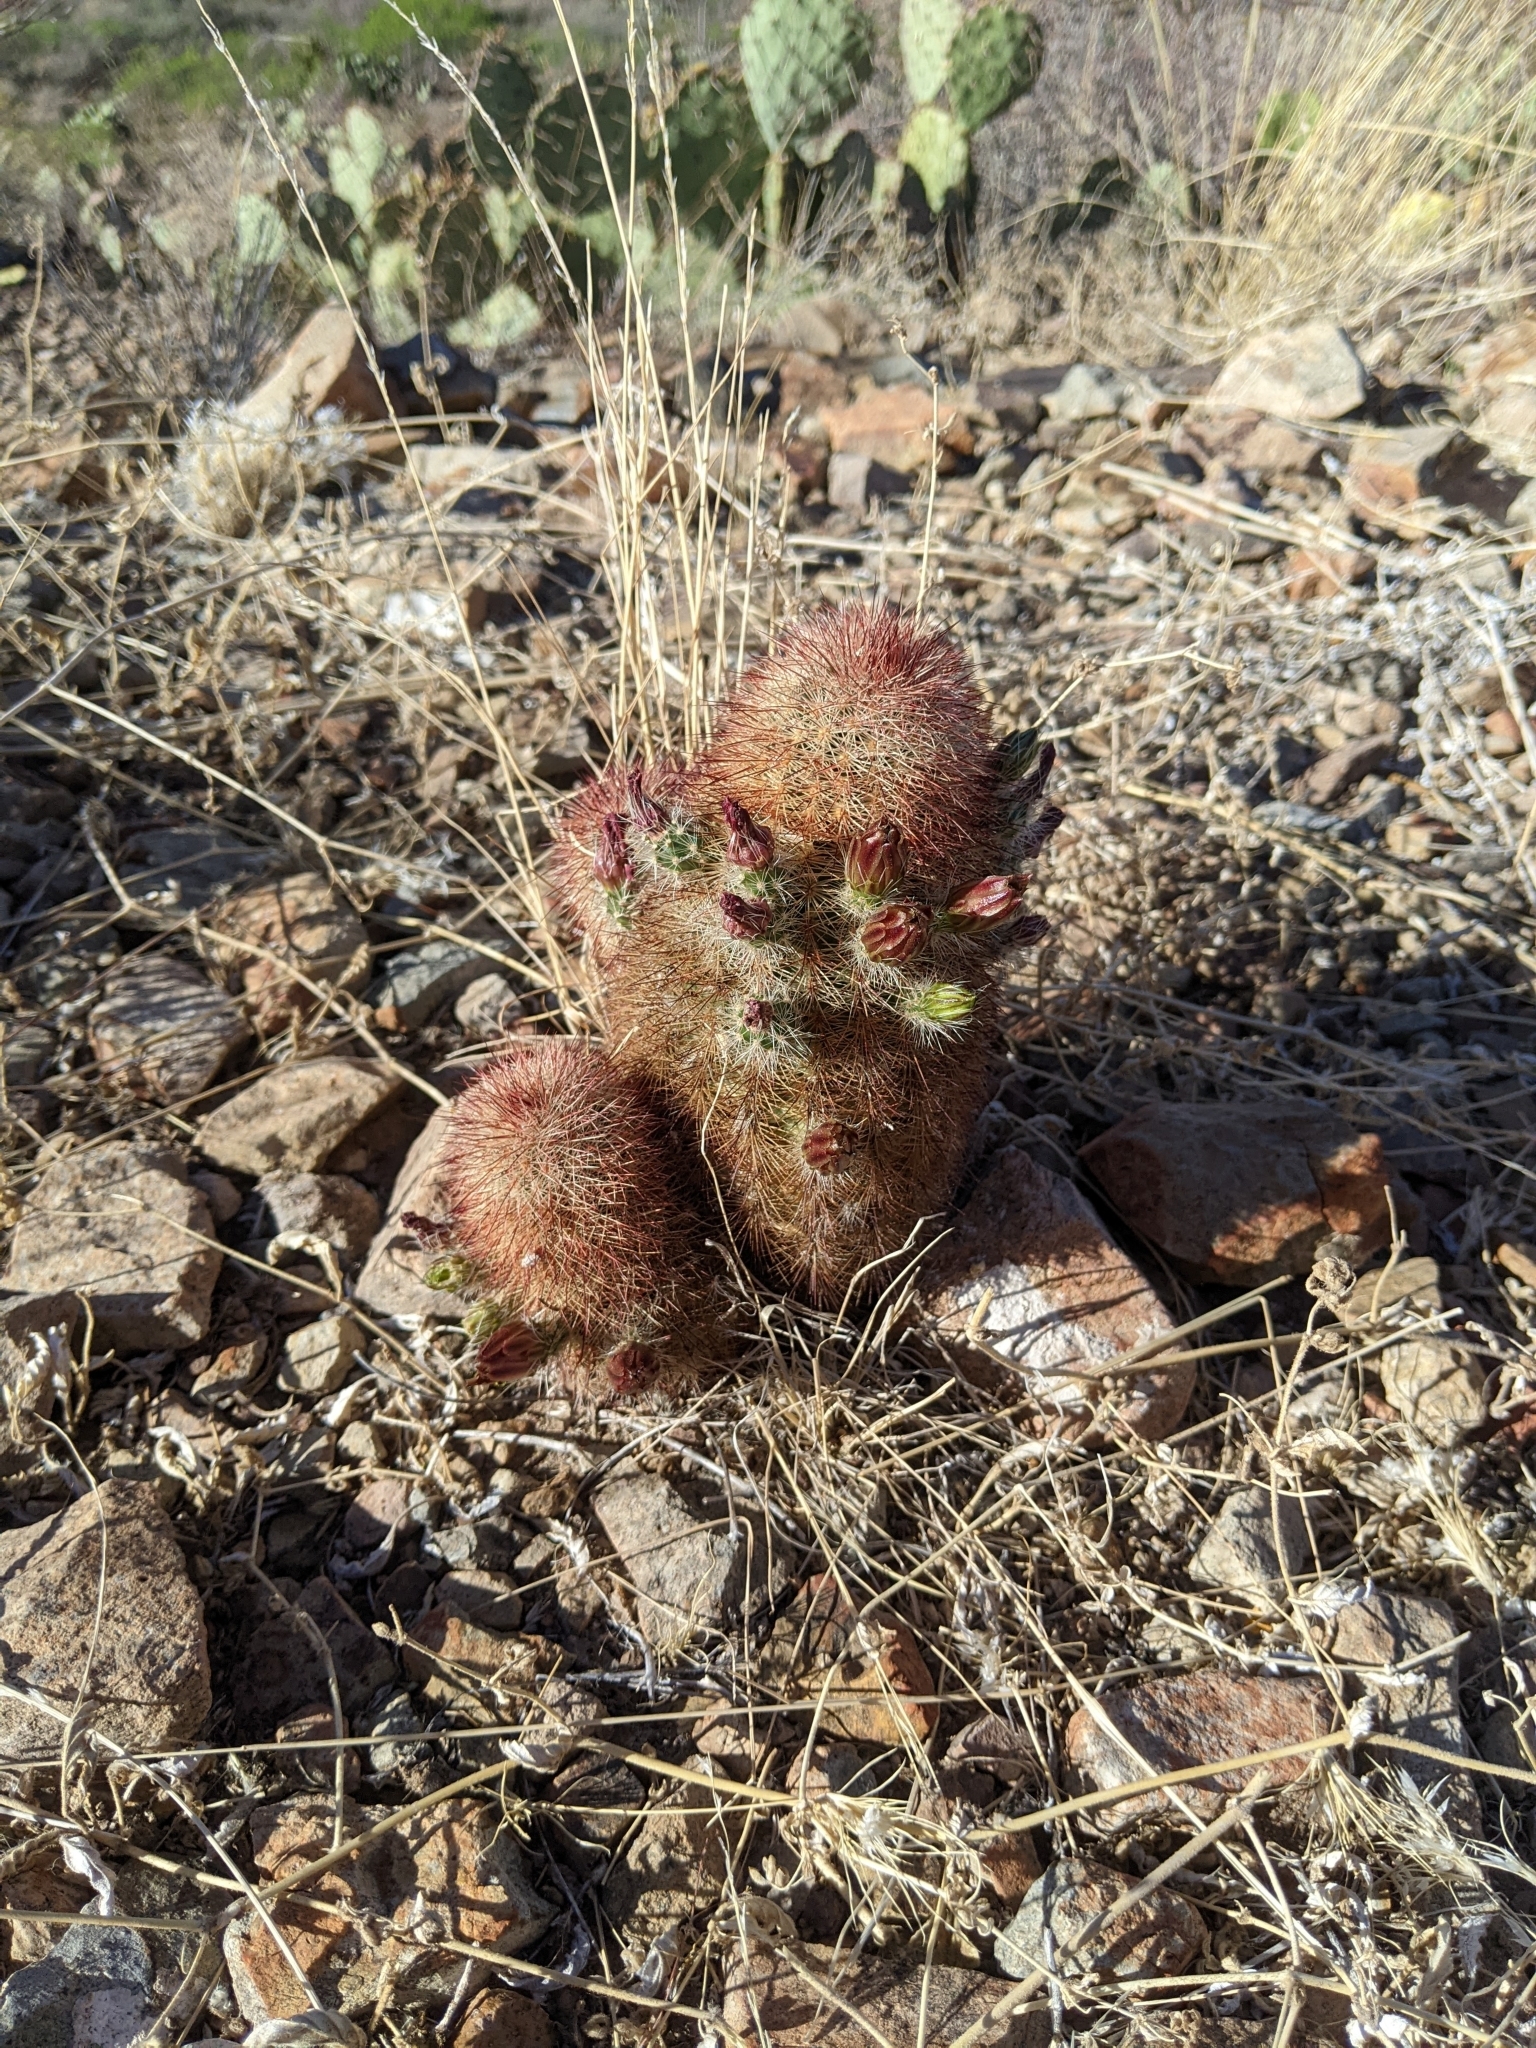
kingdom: Plantae
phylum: Tracheophyta
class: Magnoliopsida
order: Caryophyllales
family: Cactaceae
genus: Echinocereus
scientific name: Echinocereus russanthus
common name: Brownspine hedgehog cactus
